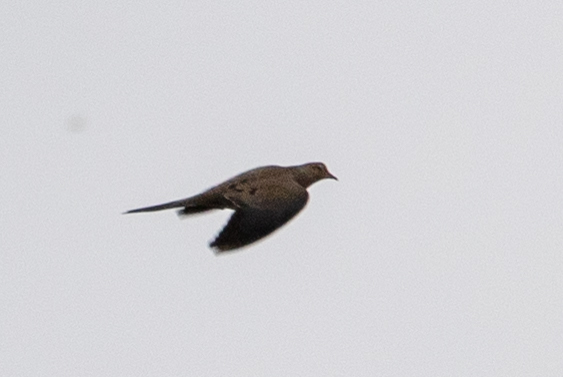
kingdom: Animalia
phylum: Chordata
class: Aves
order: Columbiformes
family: Columbidae
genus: Zenaida
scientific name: Zenaida macroura
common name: Mourning dove
